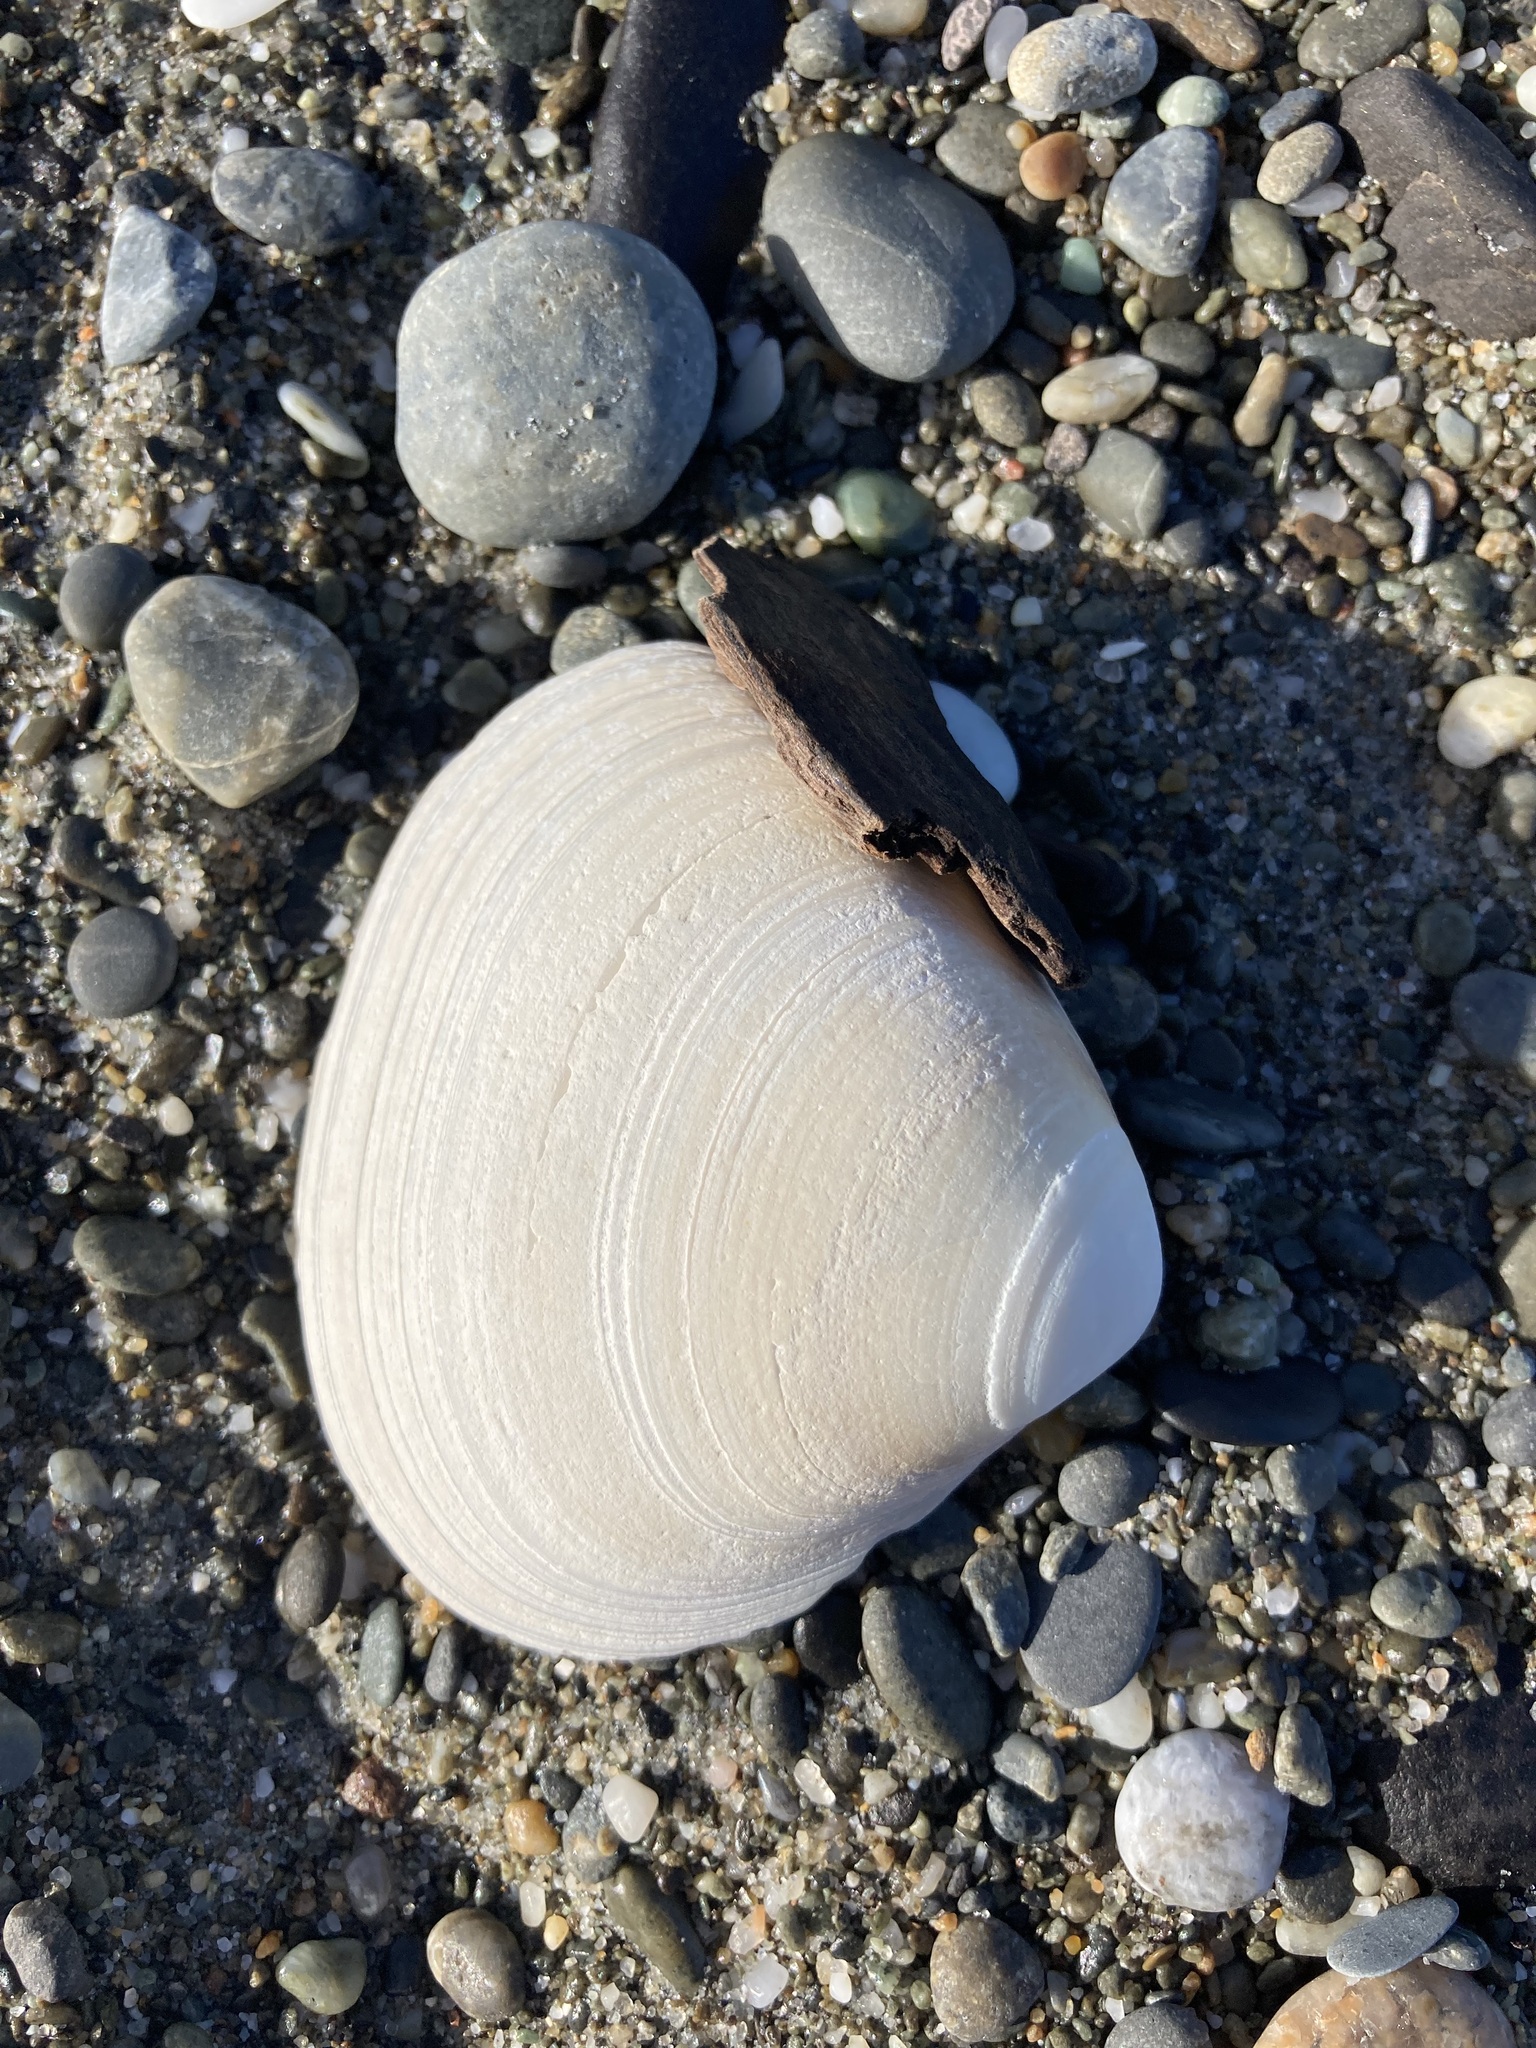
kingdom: Animalia
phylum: Mollusca
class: Bivalvia
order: Venerida
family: Mactridae
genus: Spisula
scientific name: Spisula murchisoni
